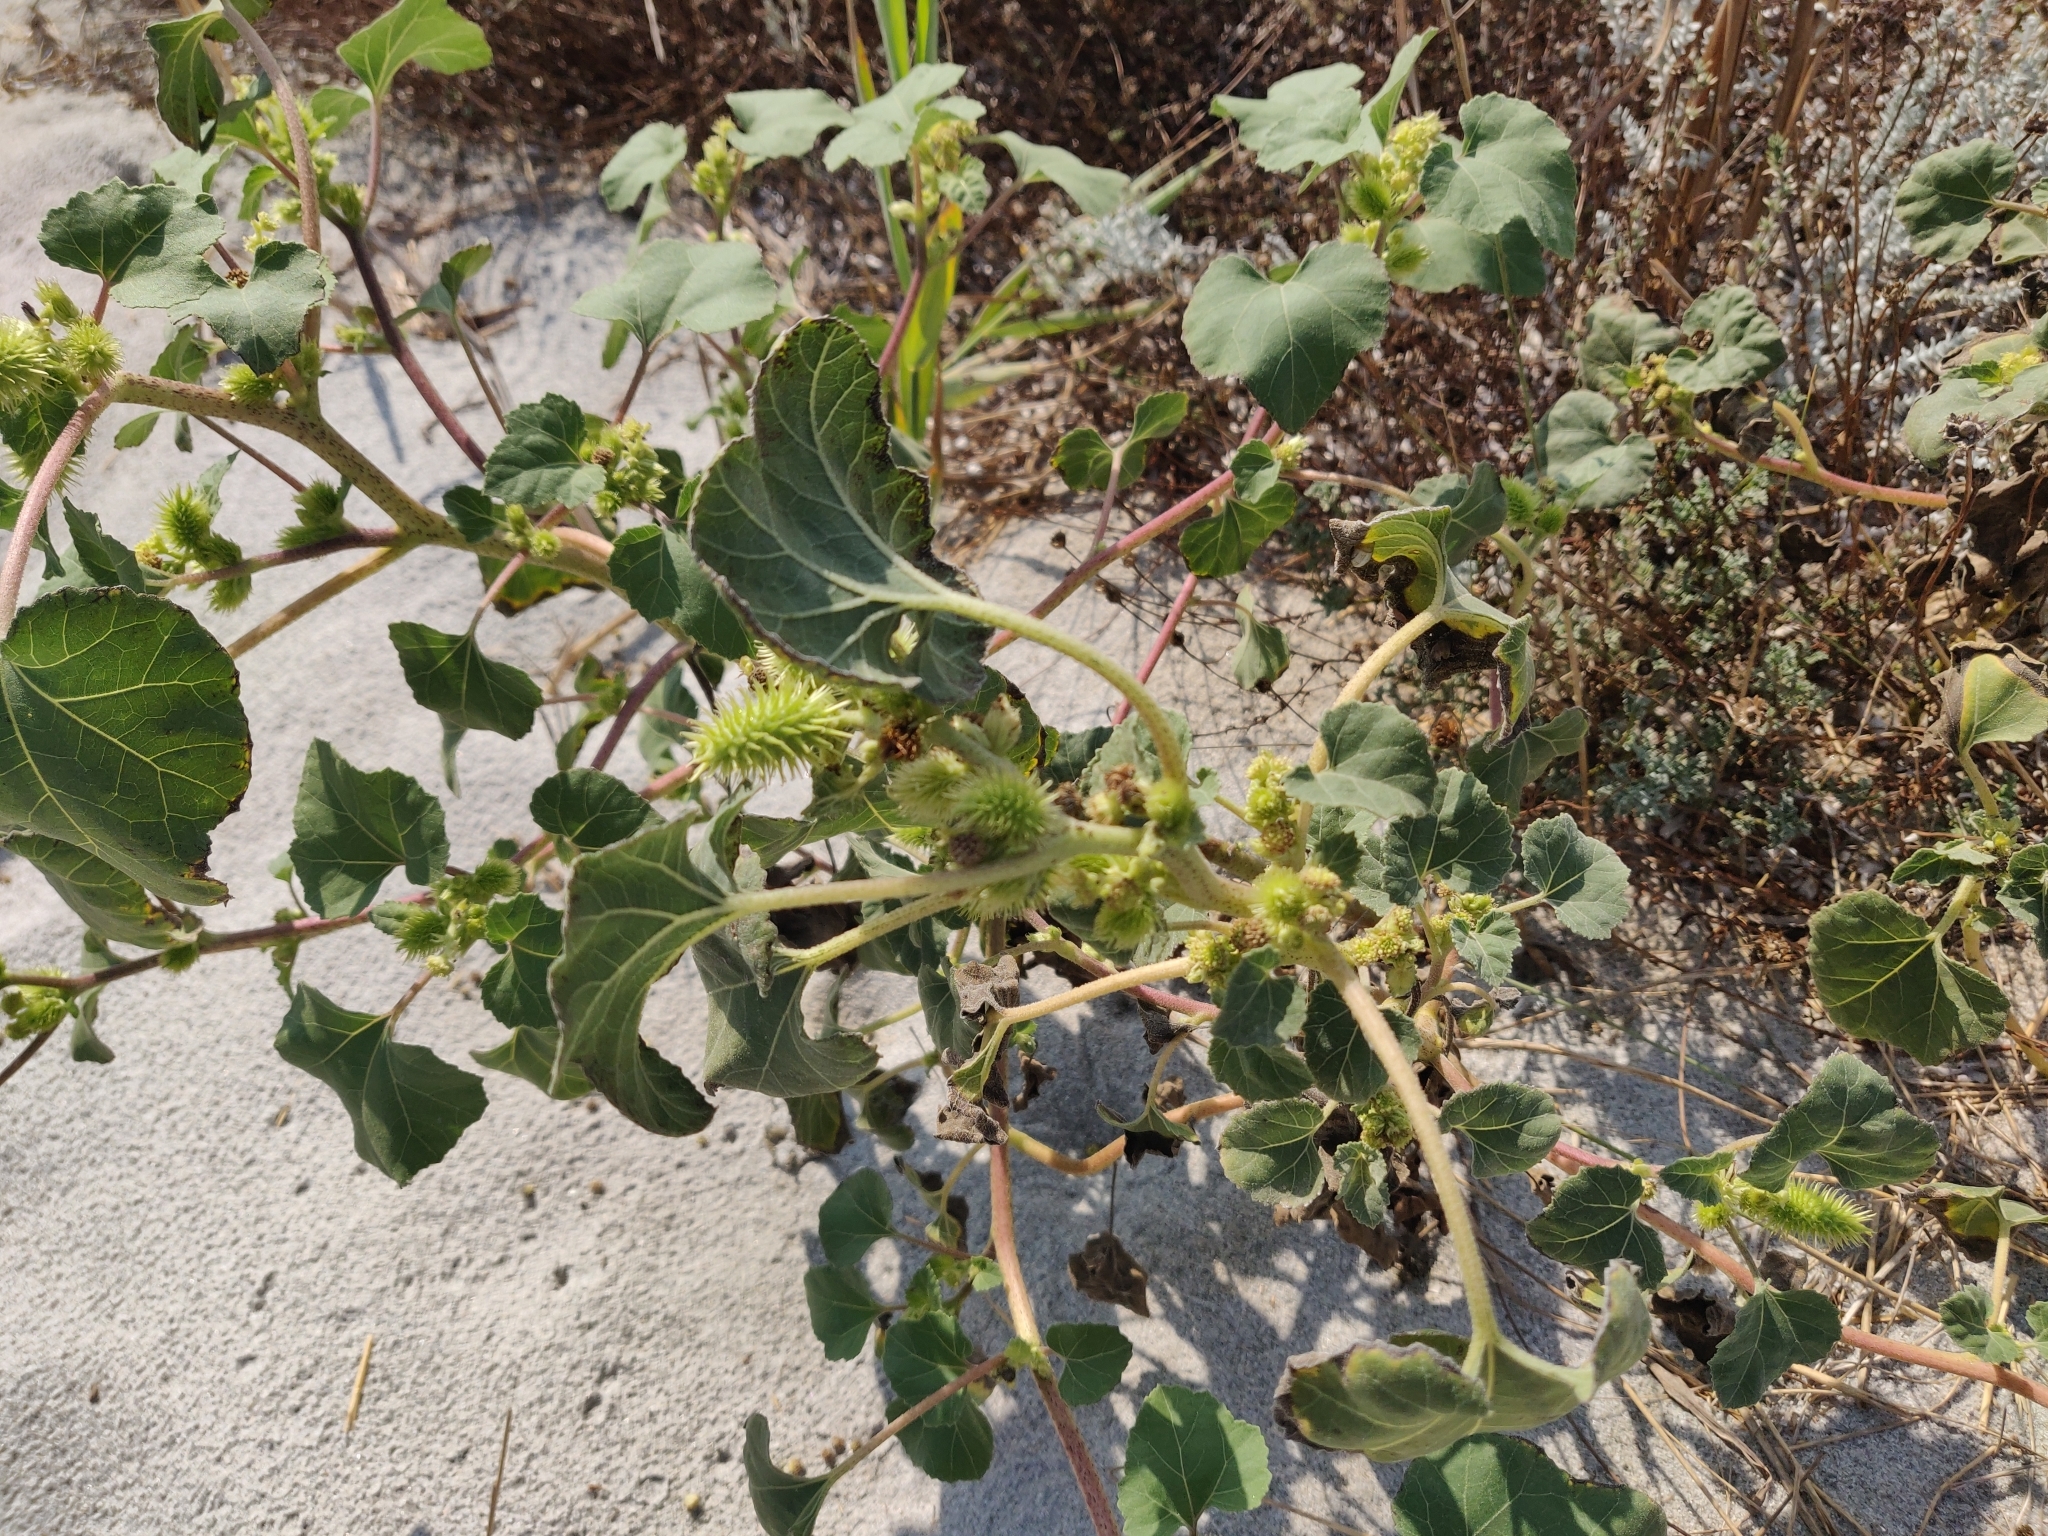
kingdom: Plantae
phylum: Tracheophyta
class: Magnoliopsida
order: Asterales
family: Asteraceae
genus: Xanthium
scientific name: Xanthium orientale
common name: Californian burr
